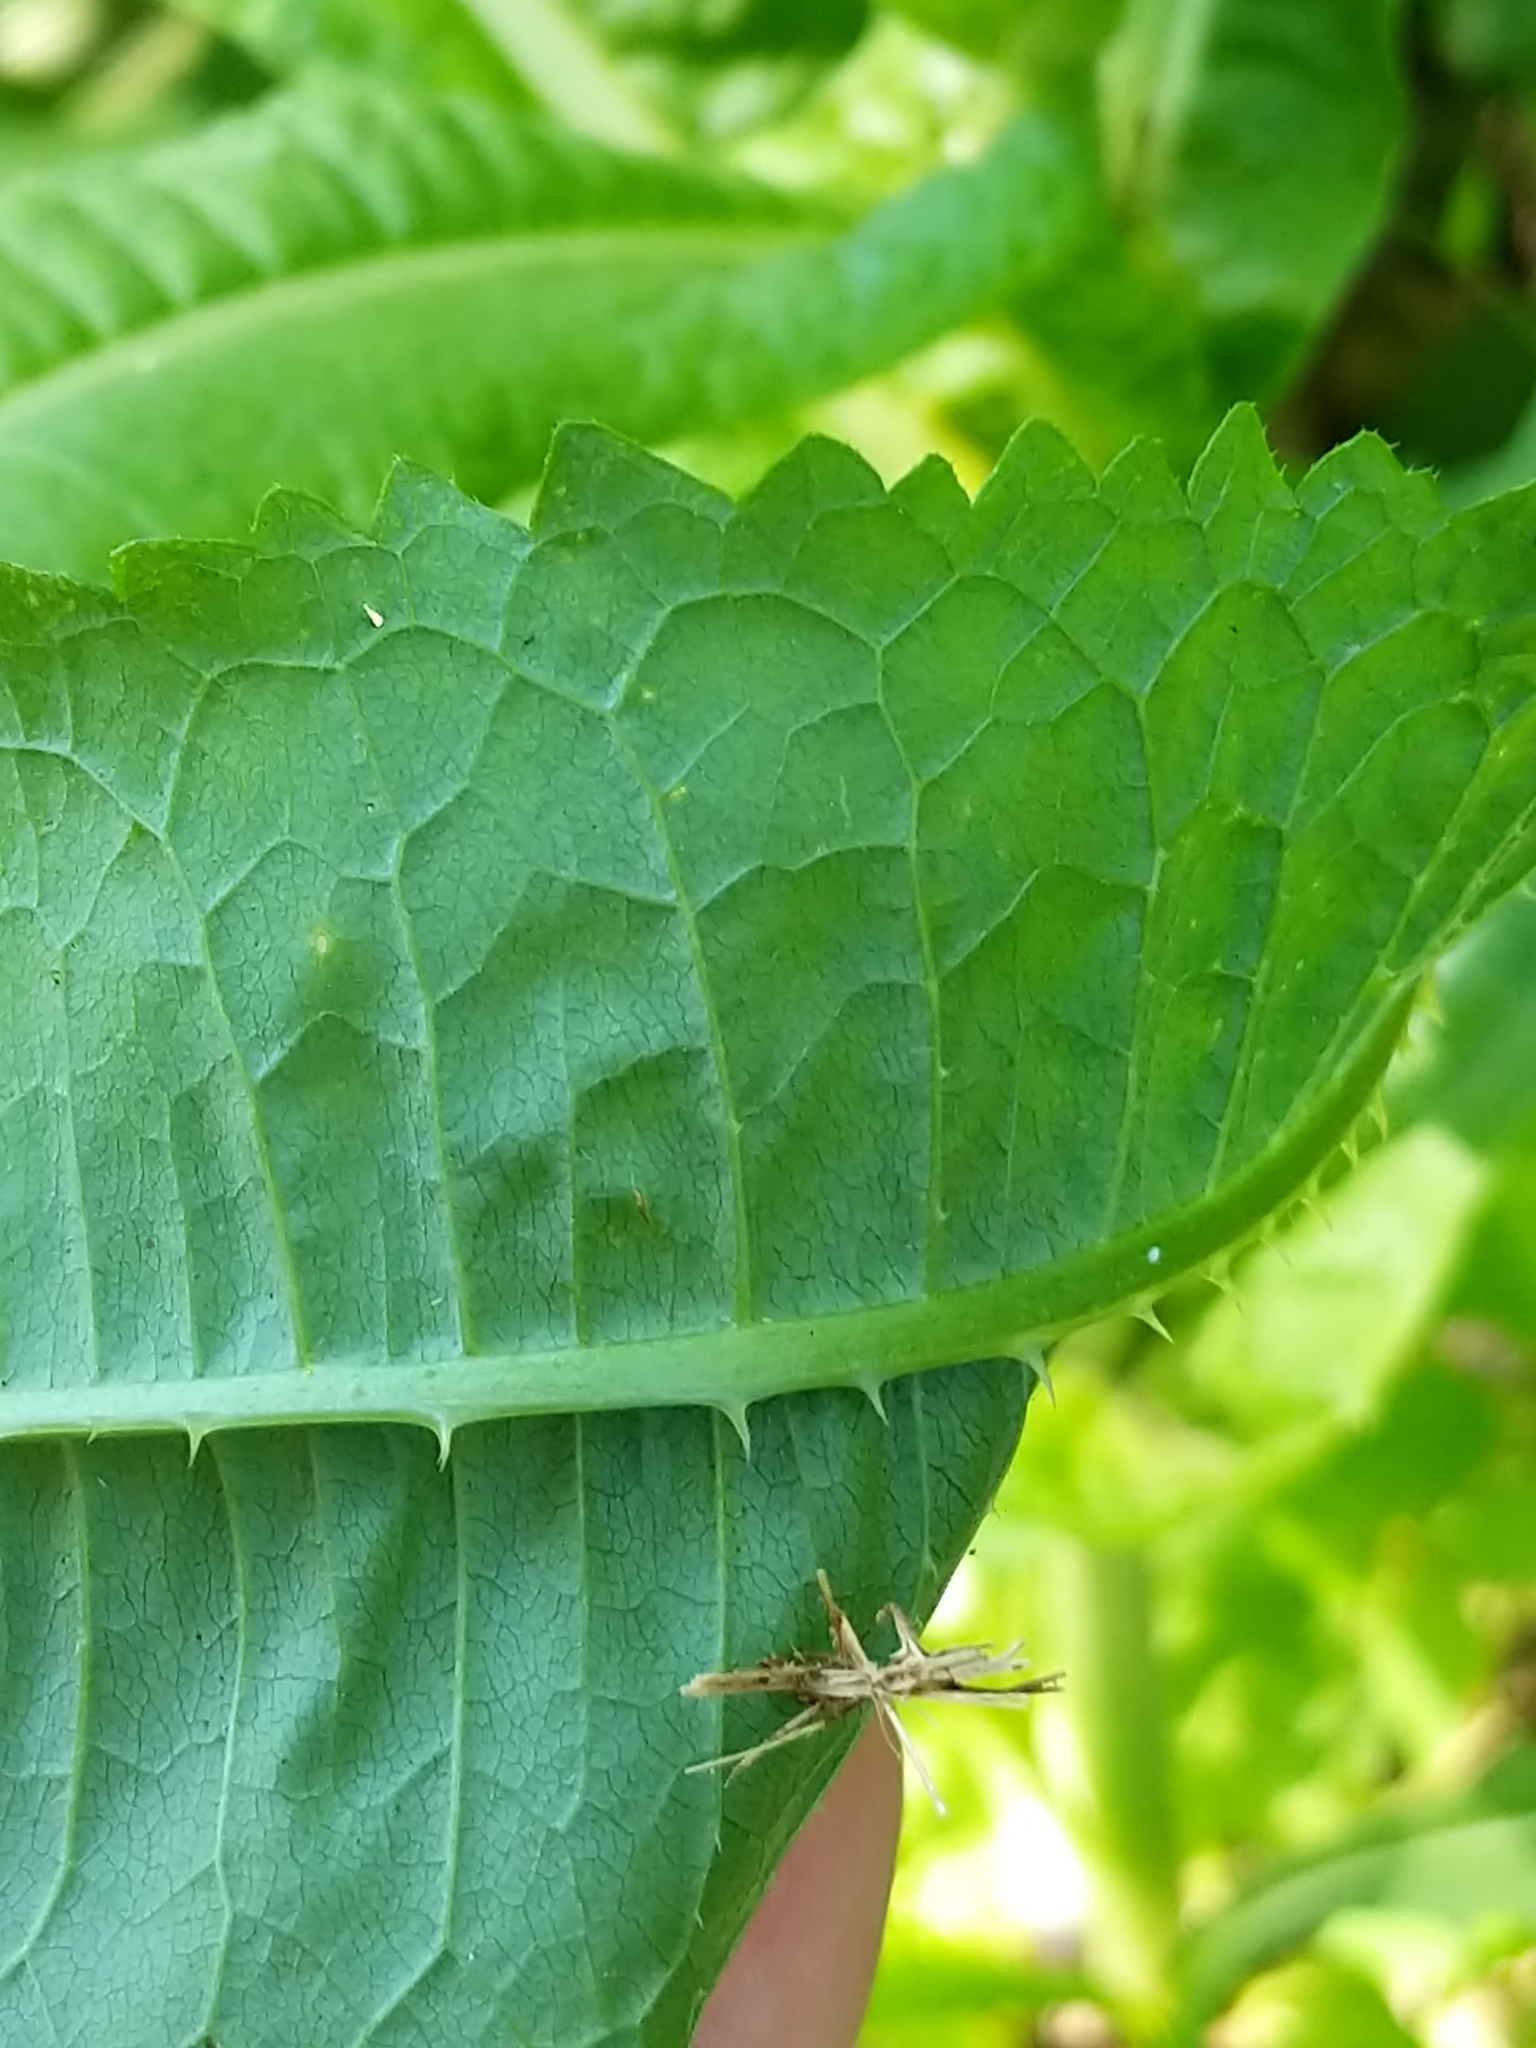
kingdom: Plantae
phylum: Tracheophyta
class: Magnoliopsida
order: Dipsacales
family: Caprifoliaceae
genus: Dipsacus
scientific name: Dipsacus fullonum
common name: Teasel
